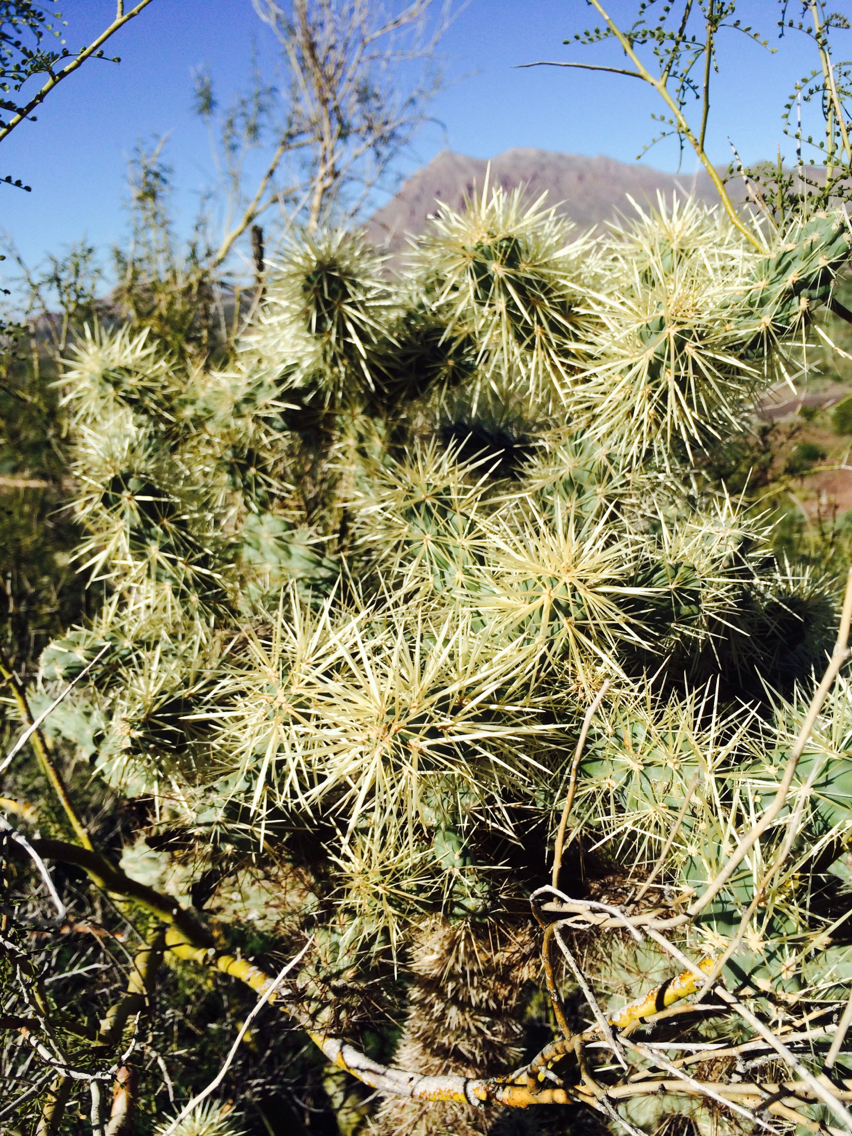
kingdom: Plantae
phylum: Tracheophyta
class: Magnoliopsida
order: Caryophyllales
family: Cactaceae
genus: Cylindropuntia
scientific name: Cylindropuntia fosbergii
